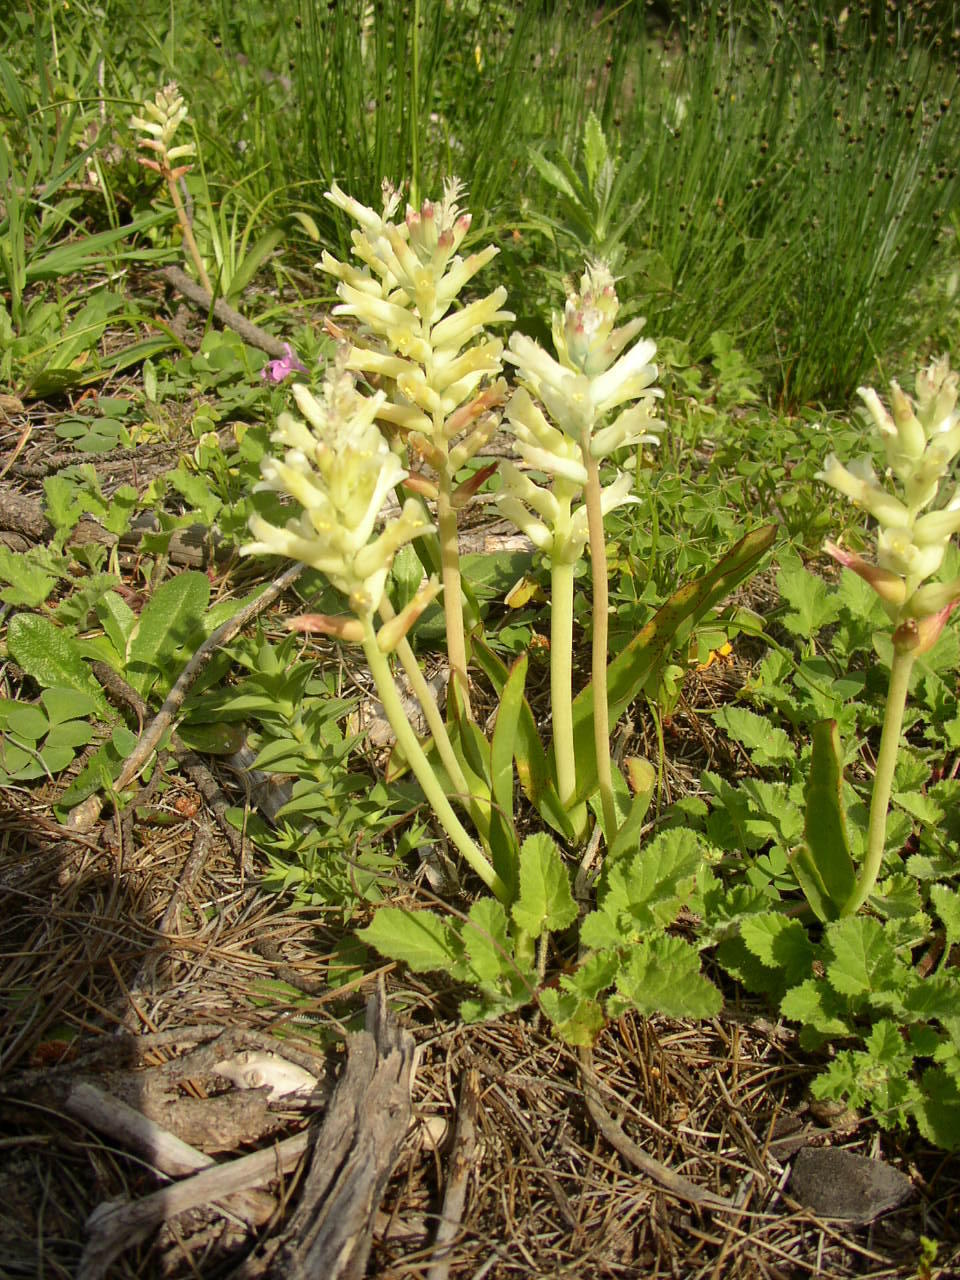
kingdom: Plantae
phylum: Tracheophyta
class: Liliopsida
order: Asparagales
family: Asparagaceae
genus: Lachenalia
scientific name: Lachenalia orchioides
